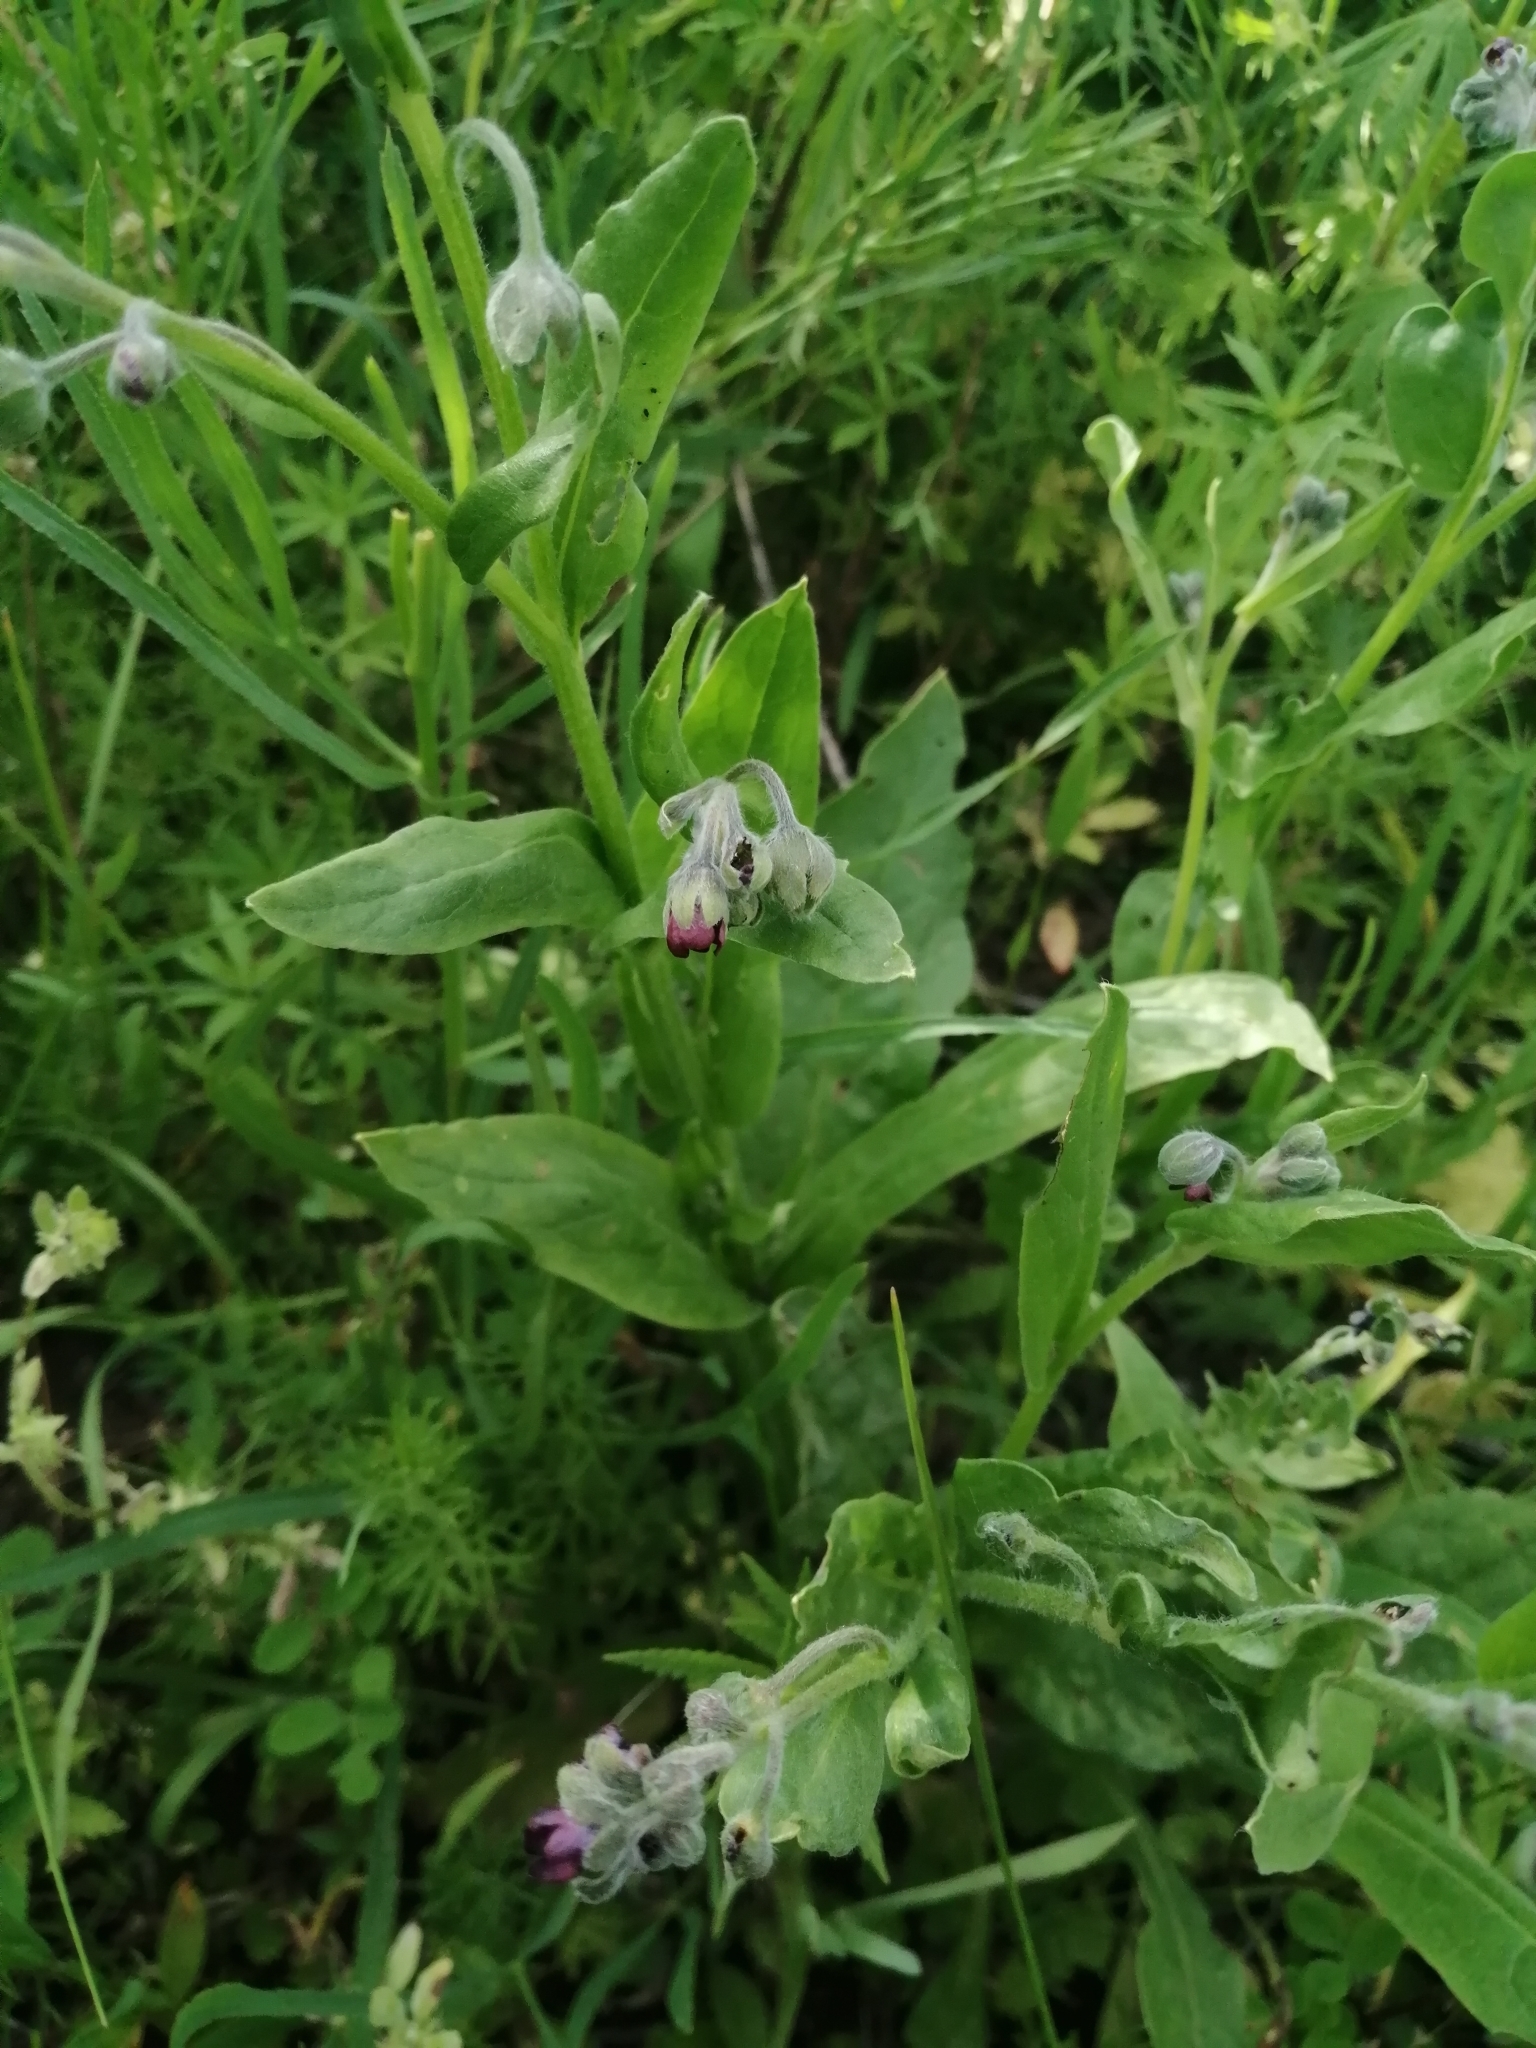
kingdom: Plantae
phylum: Tracheophyta
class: Magnoliopsida
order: Boraginales
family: Boraginaceae
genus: Cynoglossum
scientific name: Cynoglossum officinale
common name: Hound's-tongue
